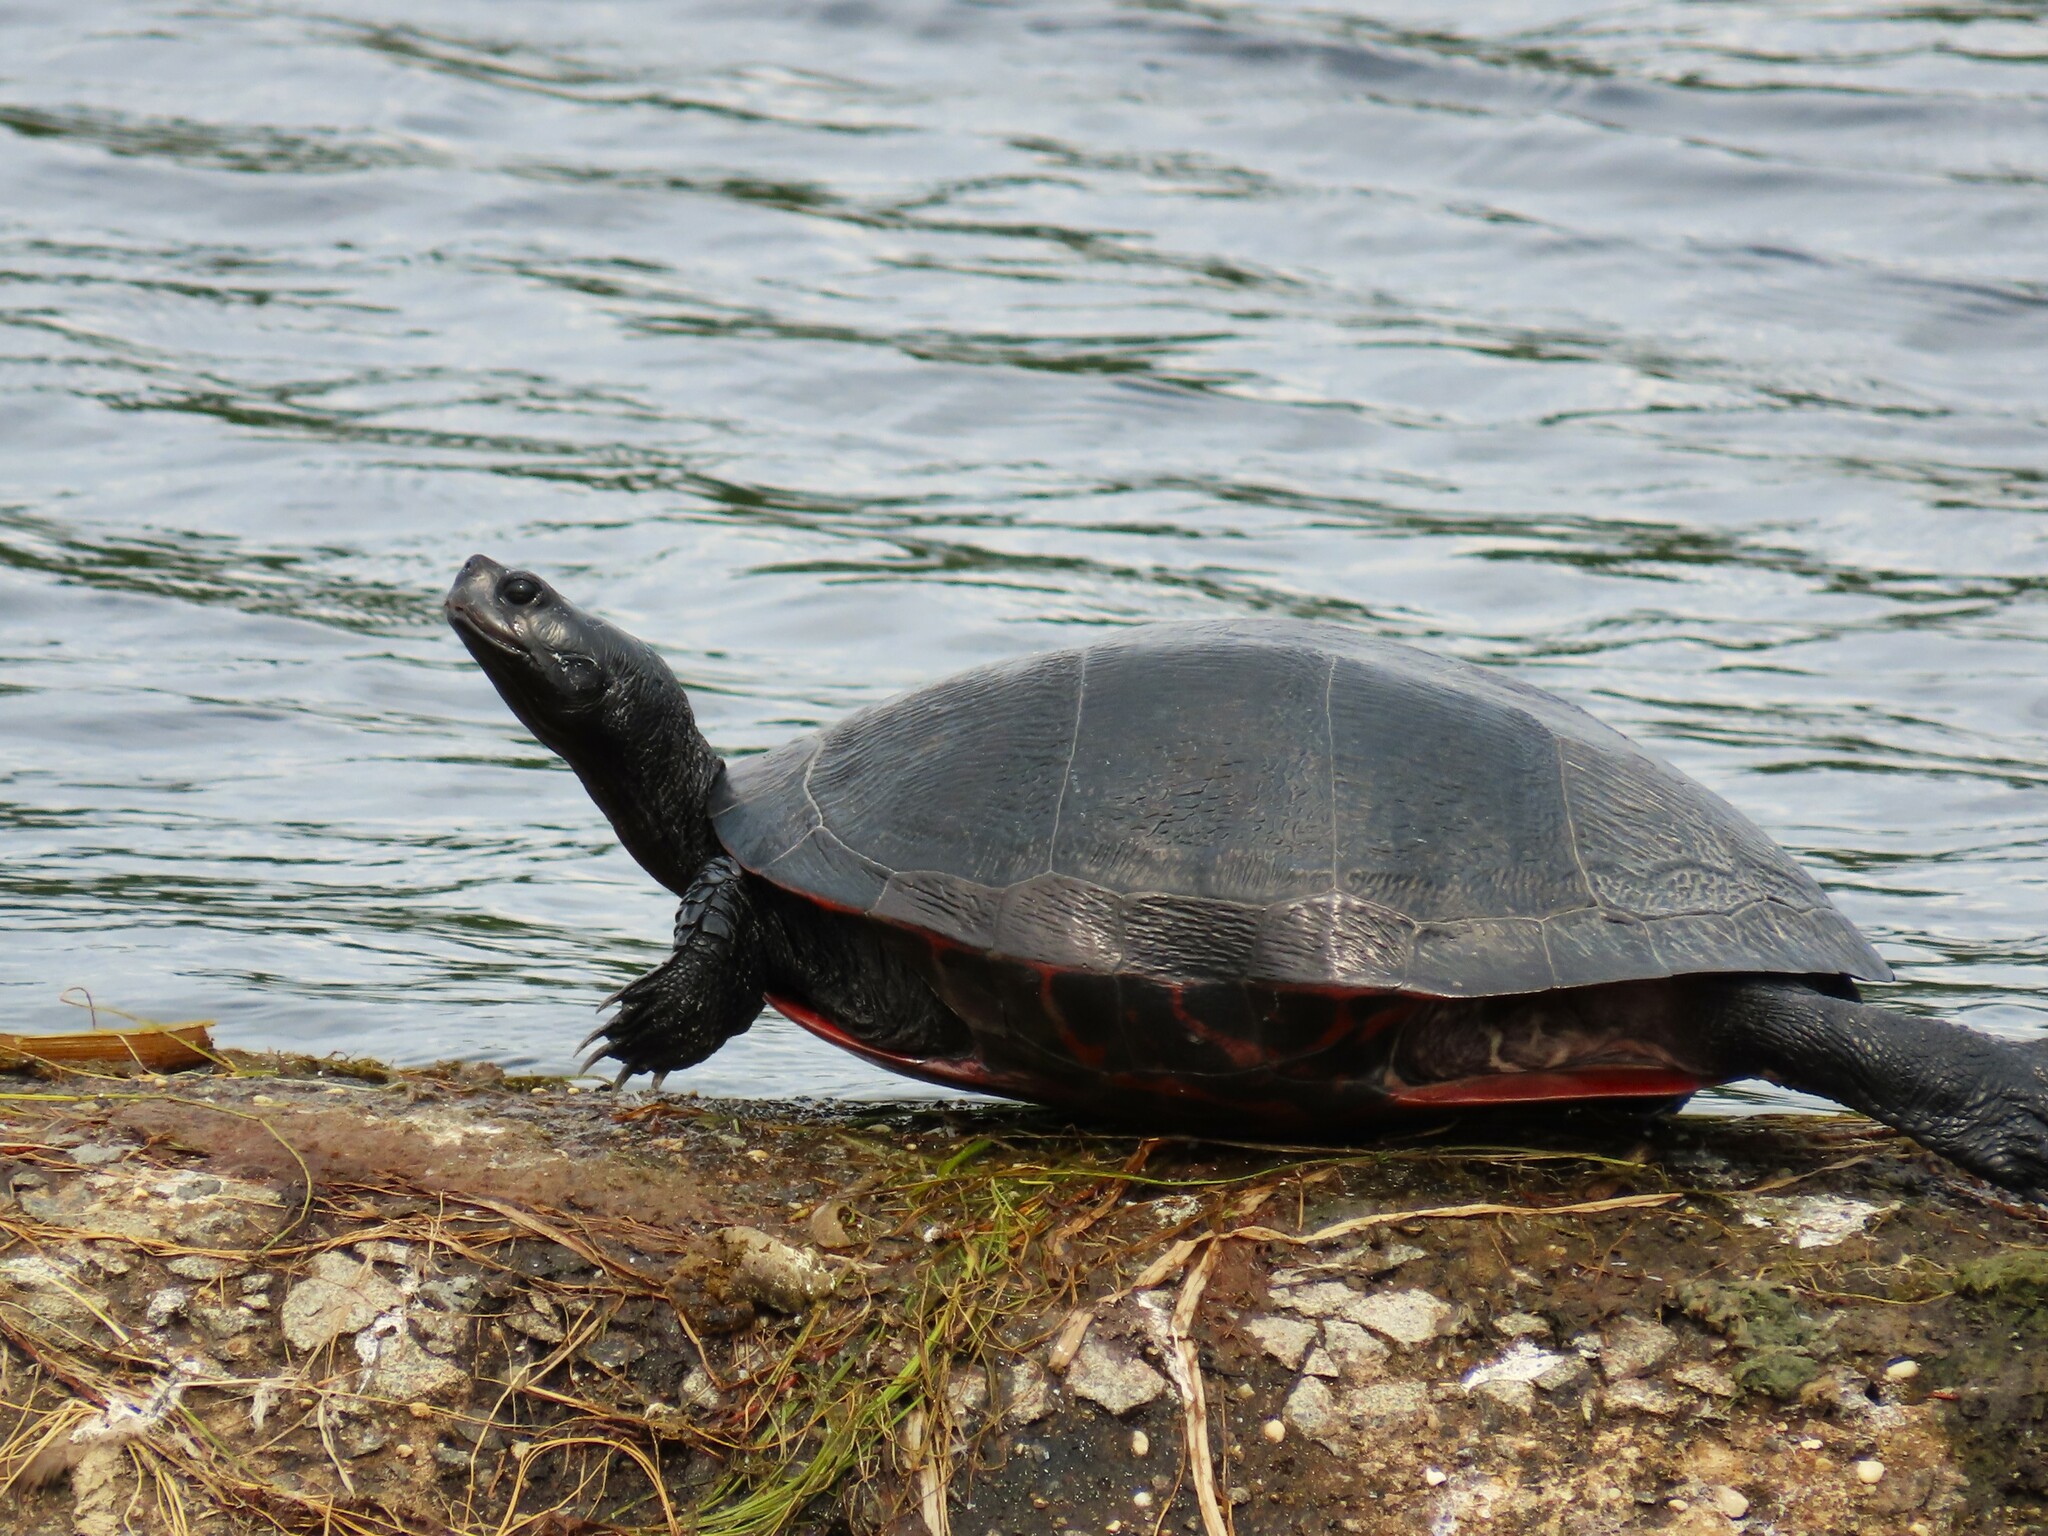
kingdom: Animalia
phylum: Chordata
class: Testudines
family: Emydidae
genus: Pseudemys
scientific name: Pseudemys rubriventris
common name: American red-bellied turtle
